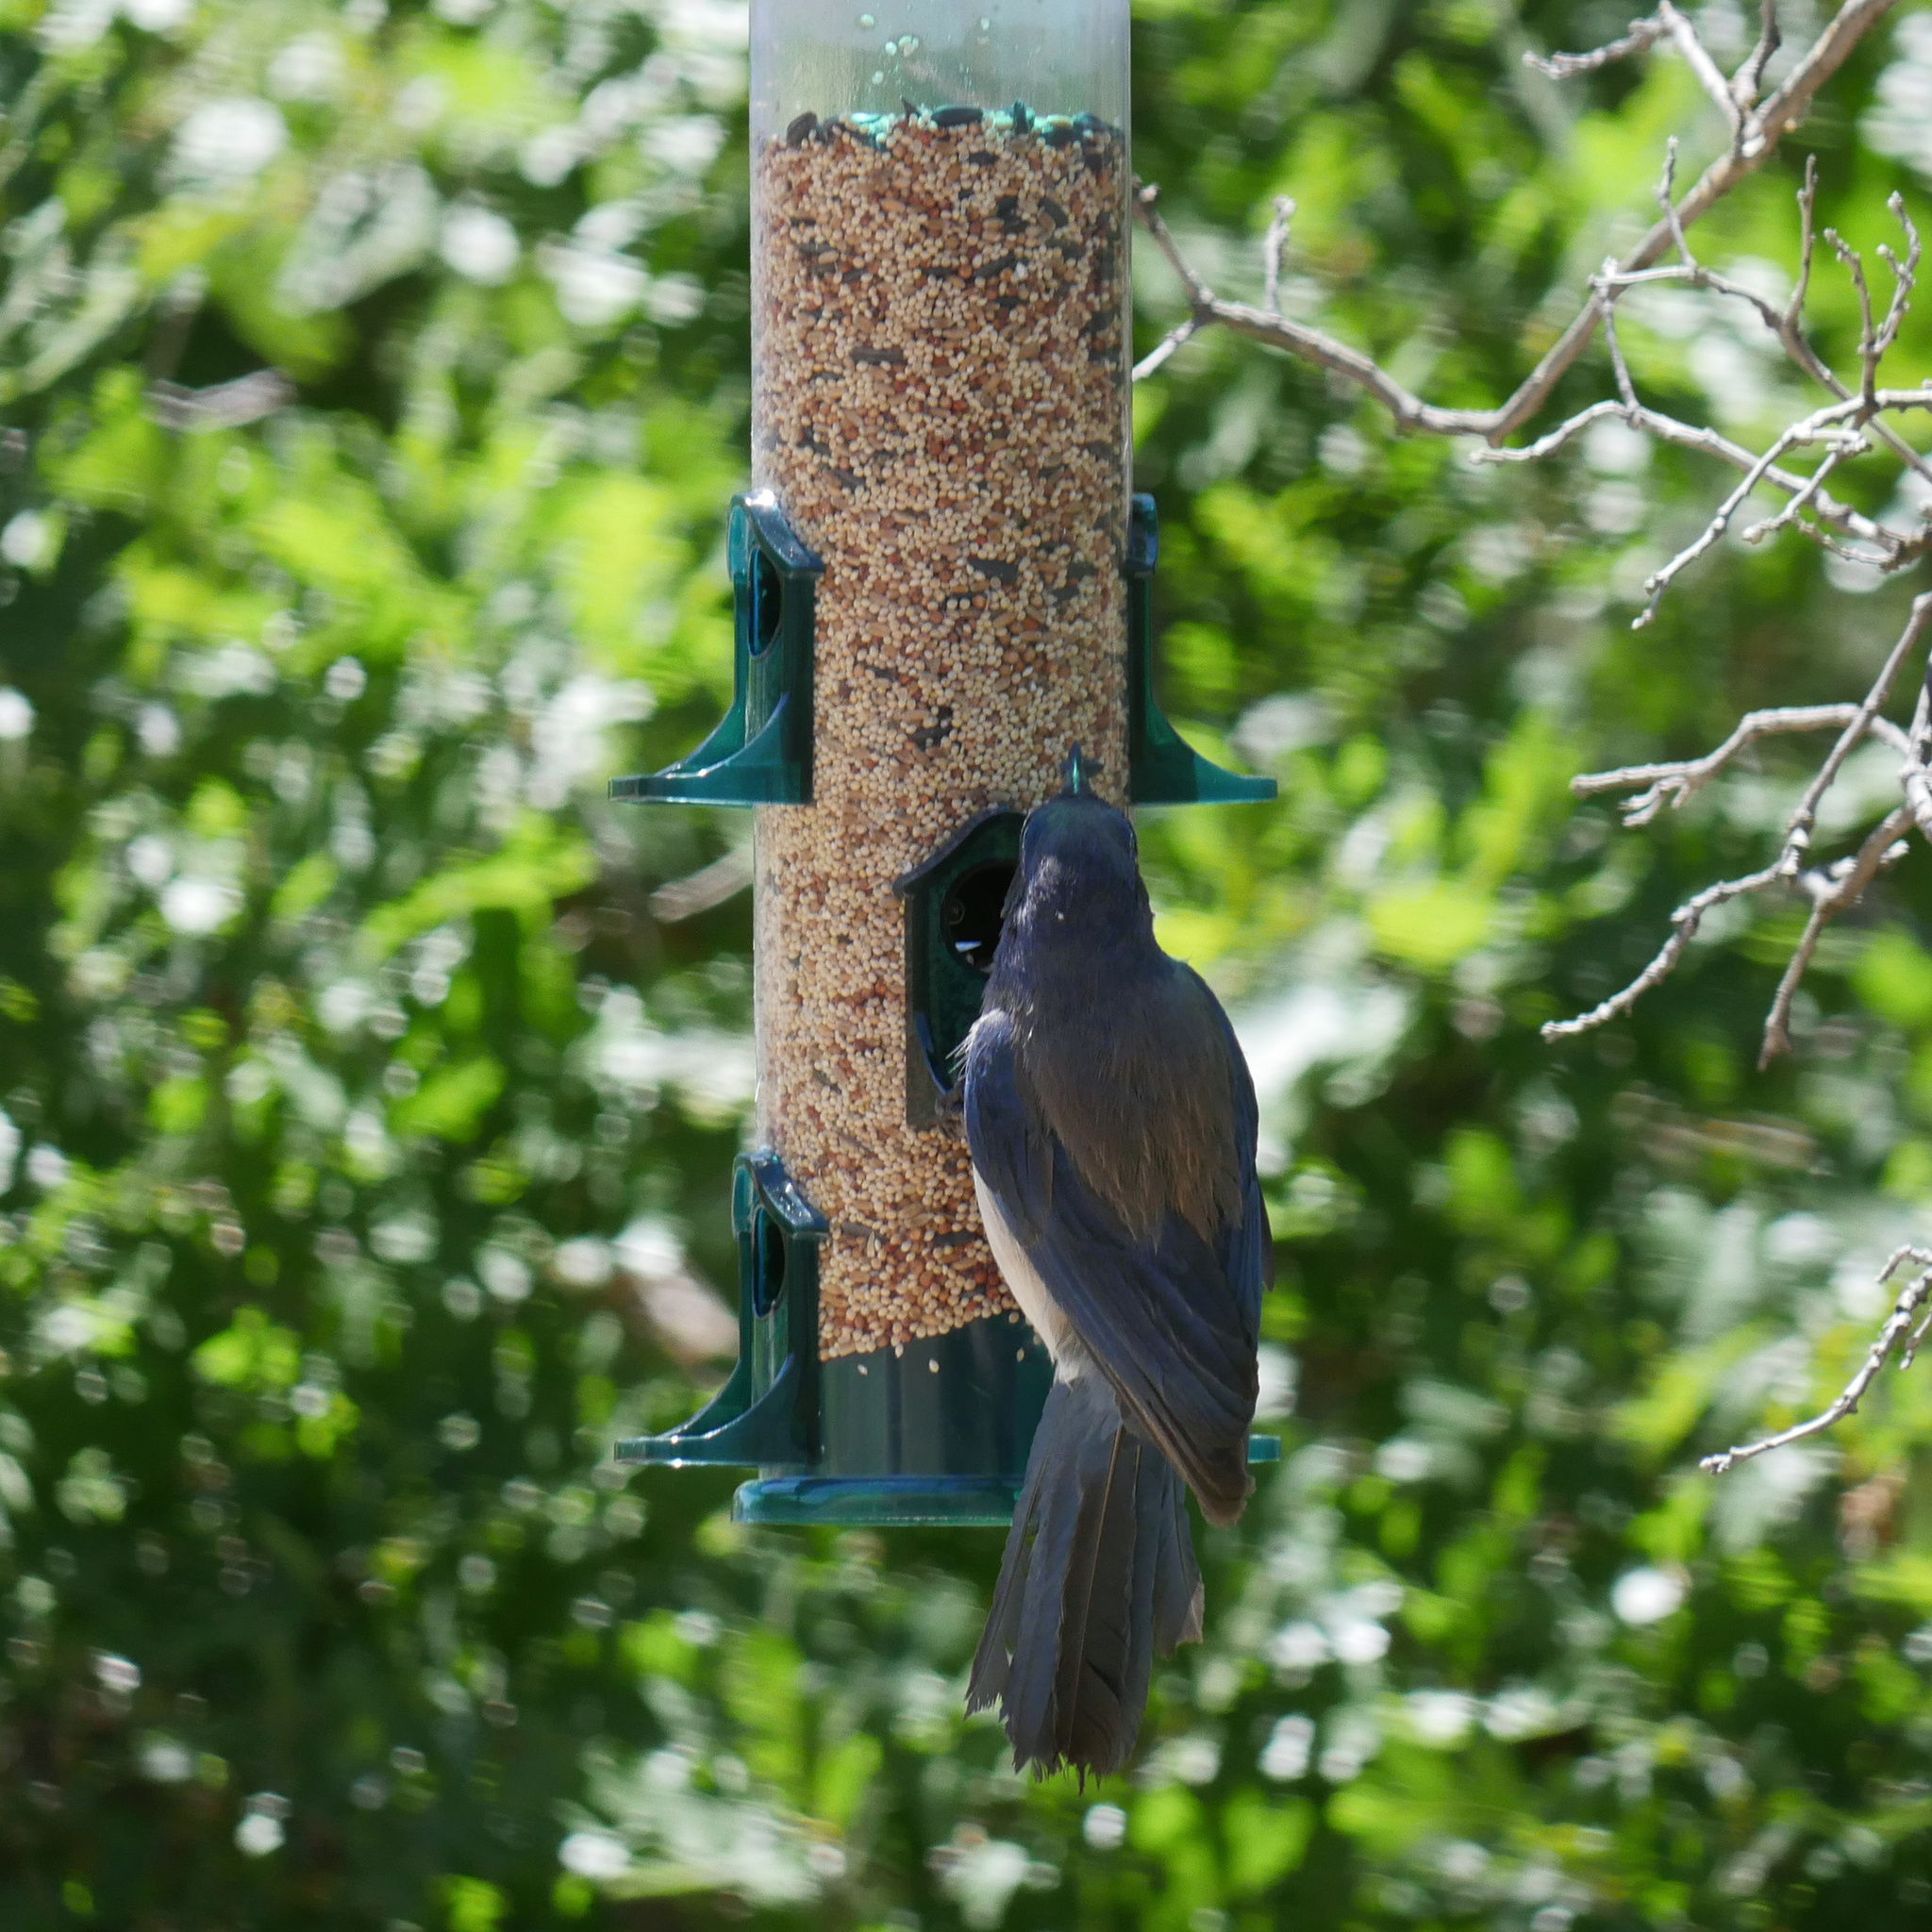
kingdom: Animalia
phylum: Chordata
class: Aves
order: Passeriformes
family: Corvidae
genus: Aphelocoma
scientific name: Aphelocoma woodhouseii
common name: Woodhouse's scrub-jay
